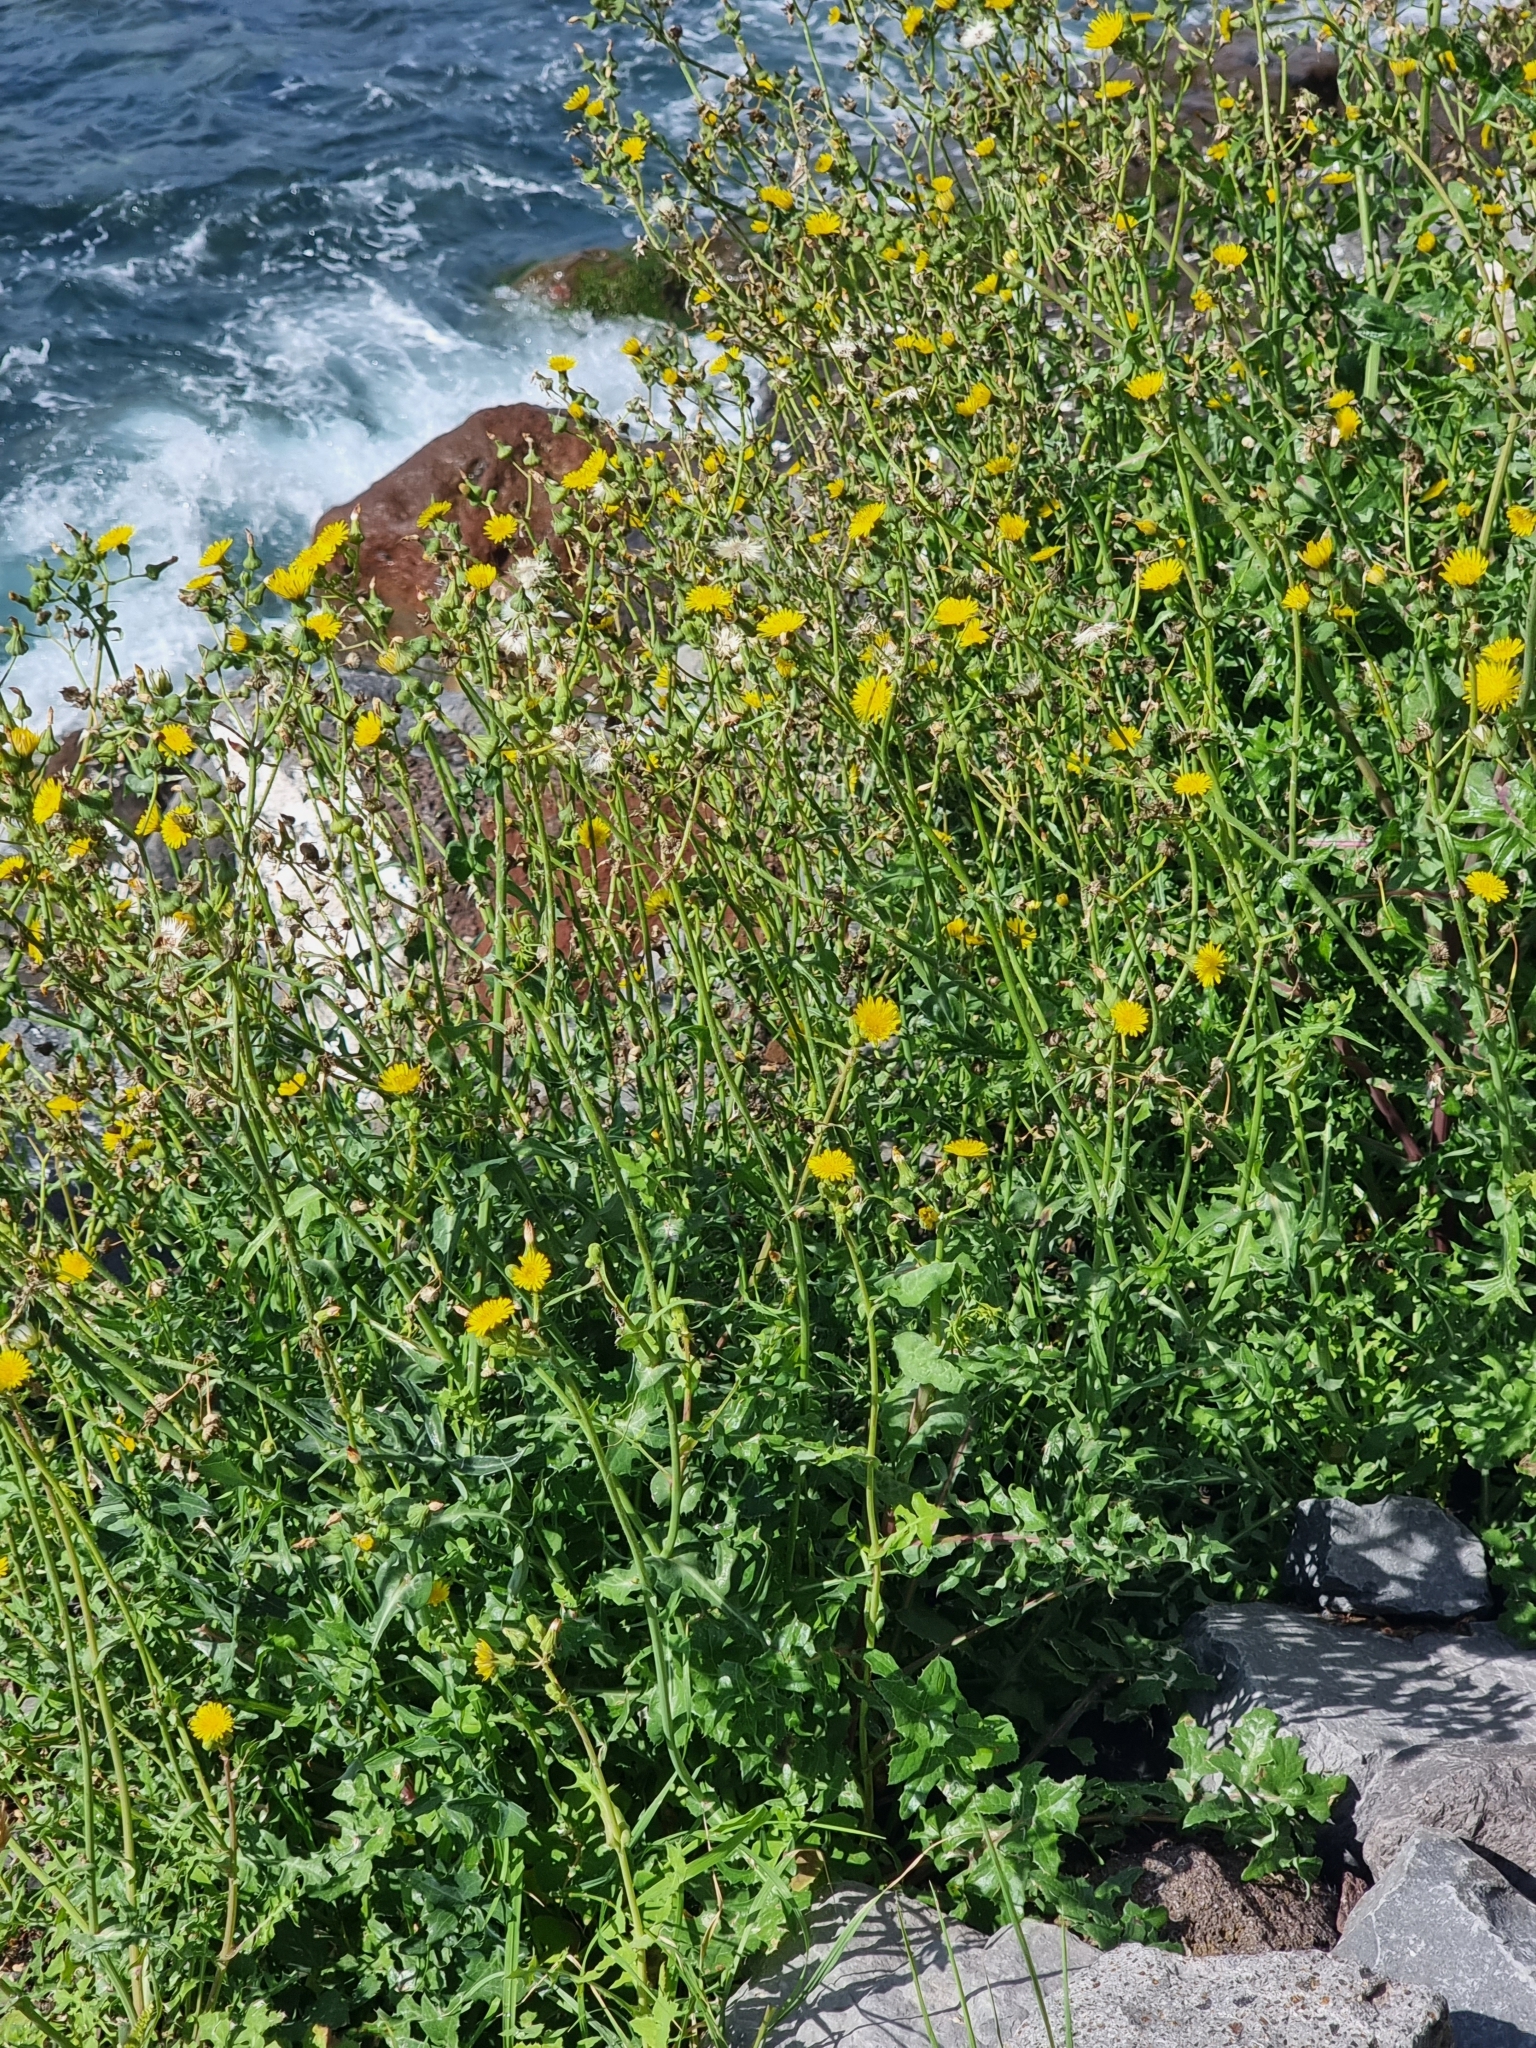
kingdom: Plantae
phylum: Tracheophyta
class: Magnoliopsida
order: Asterales
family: Asteraceae
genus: Sonchus
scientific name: Sonchus oleraceus
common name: Common sowthistle
